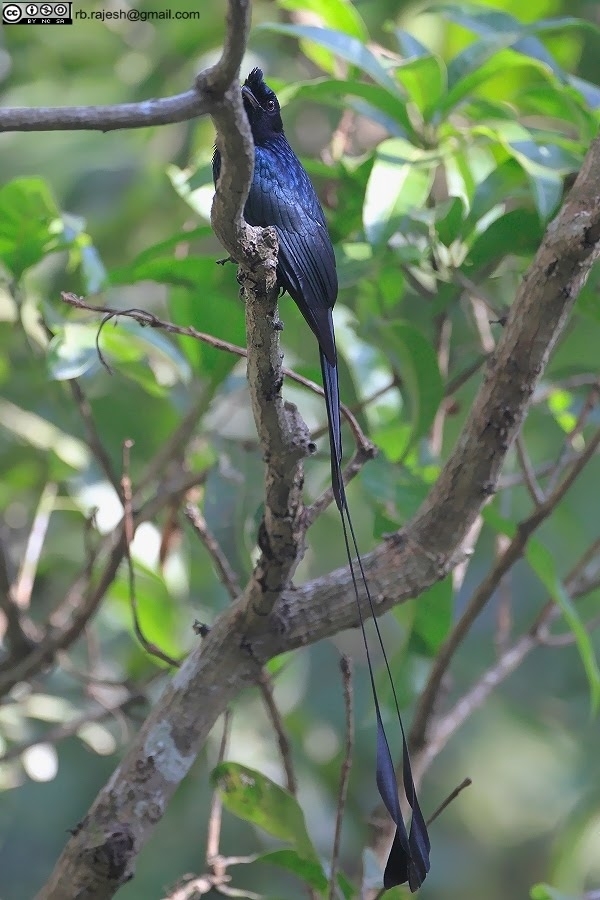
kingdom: Animalia
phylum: Chordata
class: Aves
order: Passeriformes
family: Dicruridae
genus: Dicrurus
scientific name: Dicrurus paradiseus
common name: Greater racket-tailed drongo
